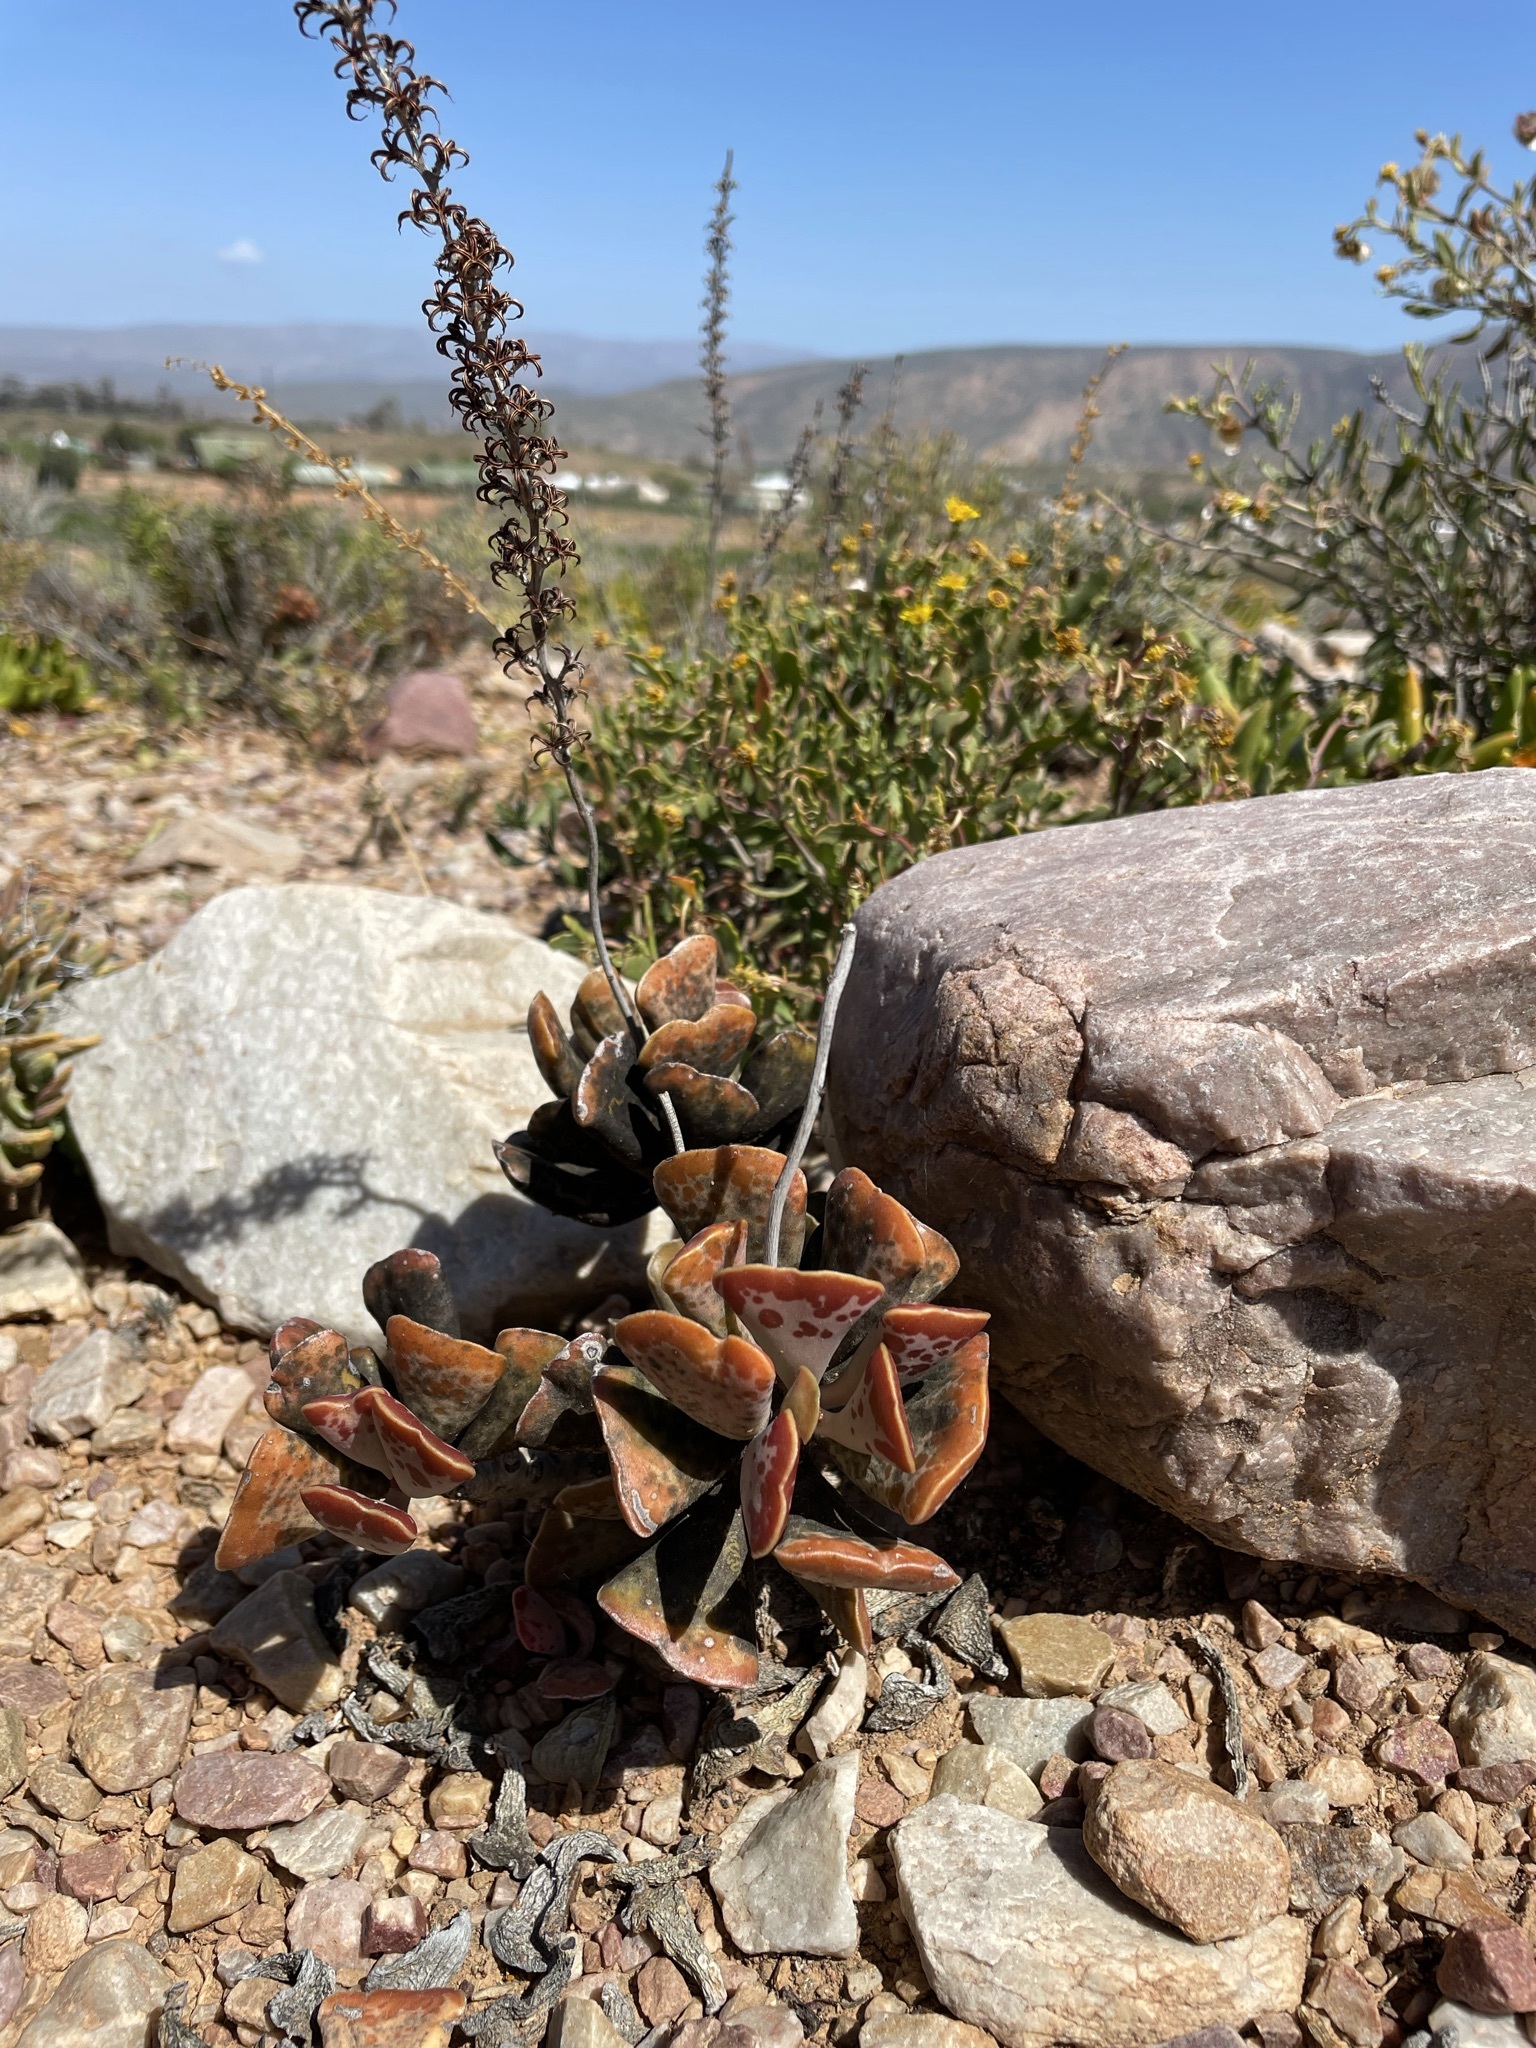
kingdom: Plantae
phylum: Tracheophyta
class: Magnoliopsida
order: Saxifragales
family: Crassulaceae
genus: Adromischus
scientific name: Adromischus triflorus
